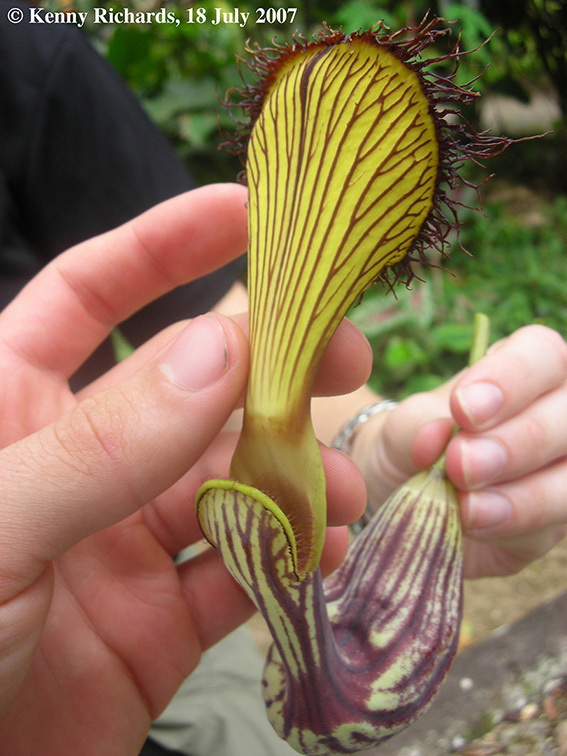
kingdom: Plantae
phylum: Tracheophyta
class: Magnoliopsida
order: Piperales
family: Aristolochiaceae
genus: Aristolochia
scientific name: Aristolochia schultzeana
